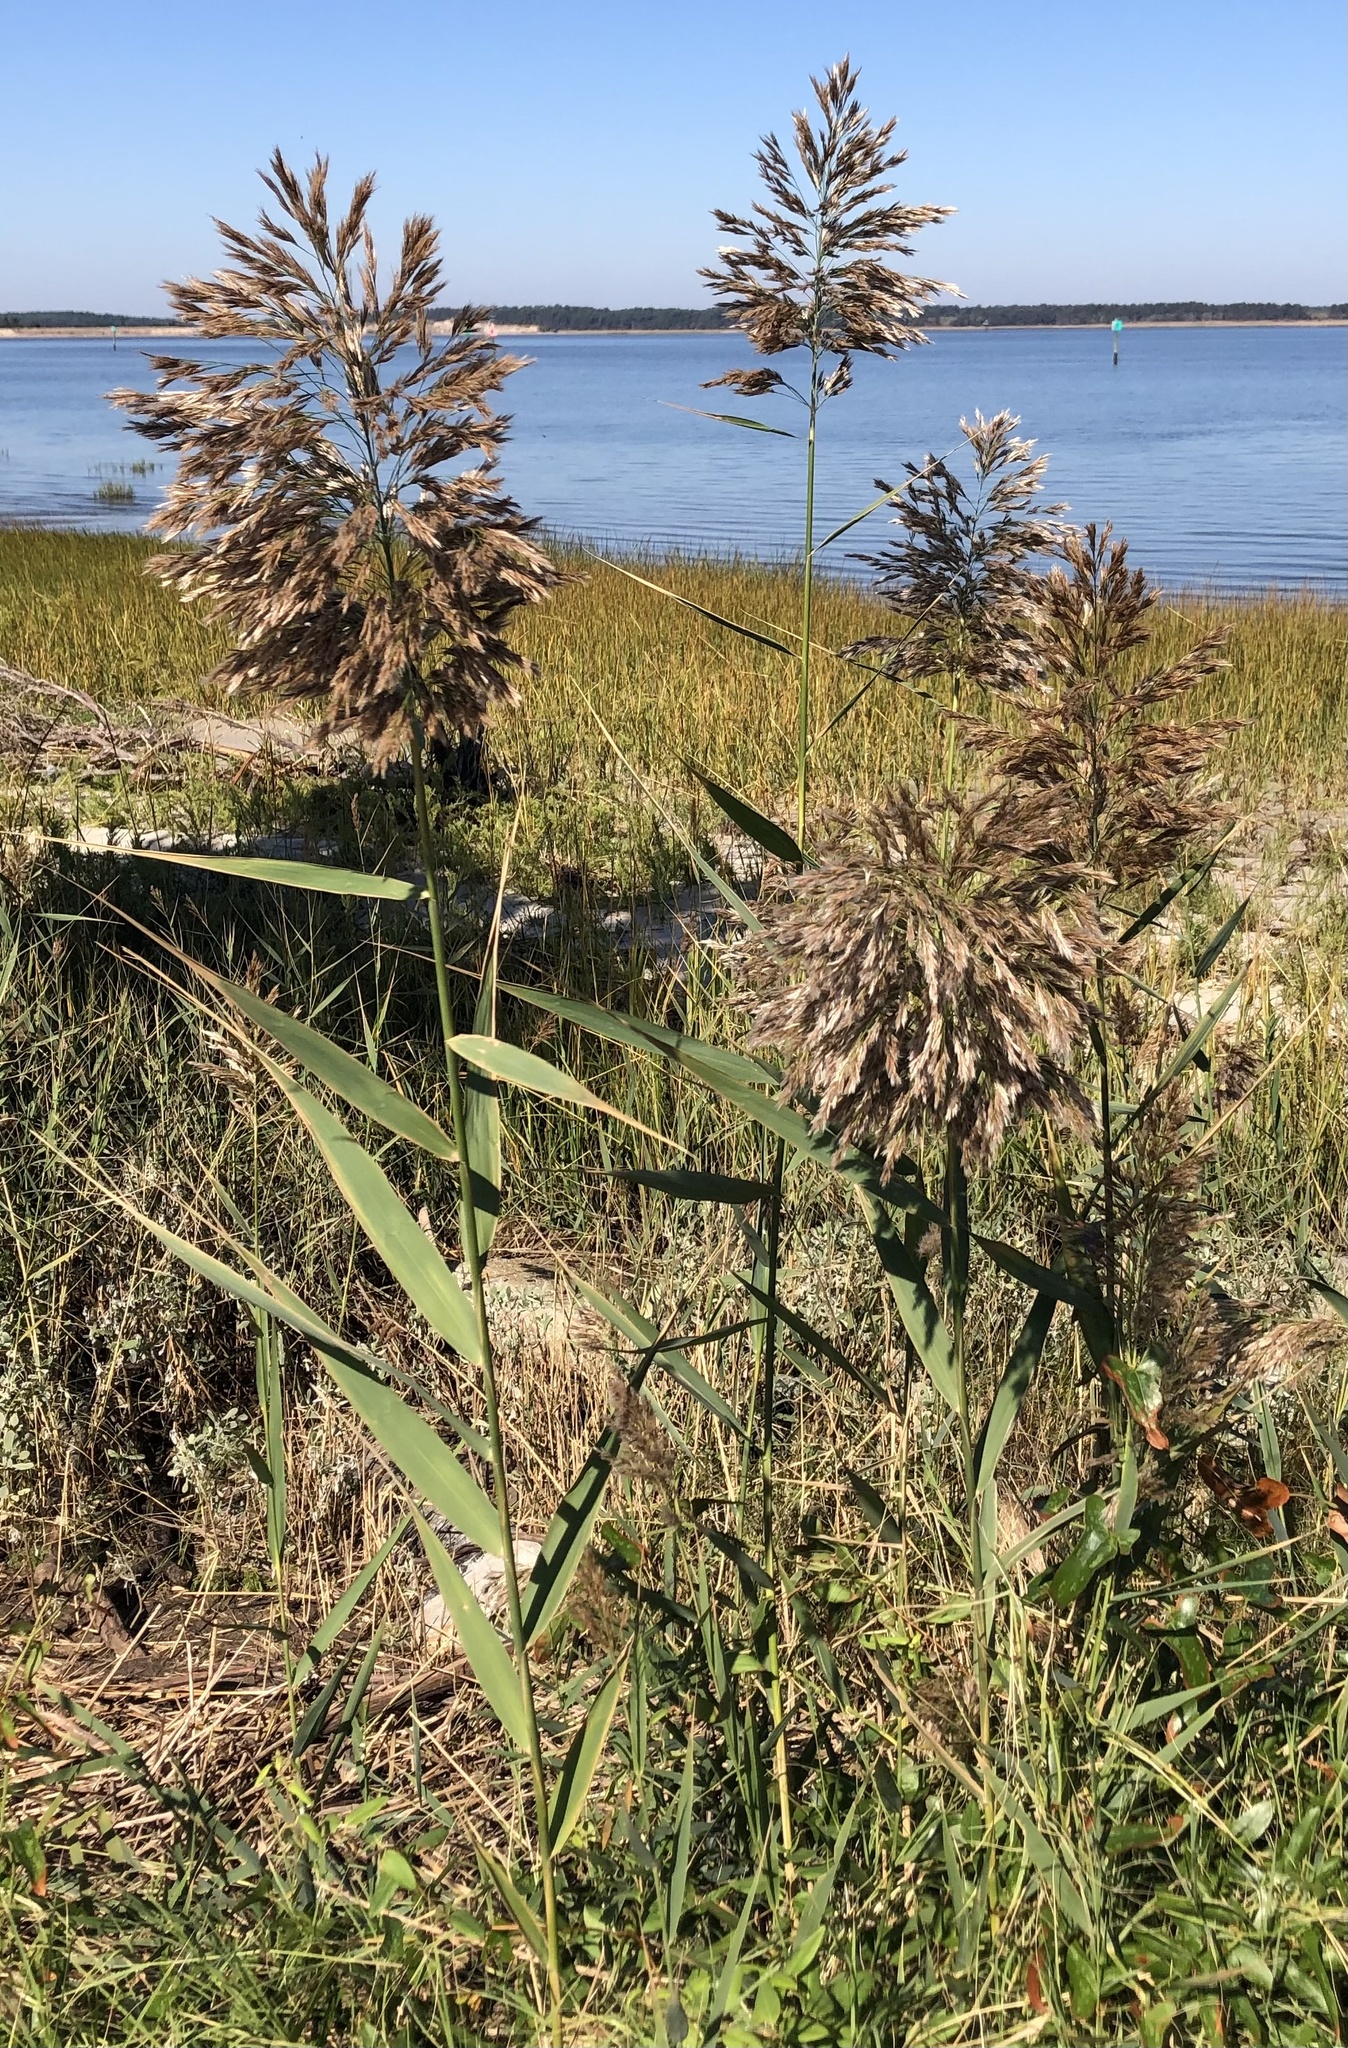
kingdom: Plantae
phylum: Tracheophyta
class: Liliopsida
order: Poales
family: Poaceae
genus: Phragmites
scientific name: Phragmites australis
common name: Common reed
